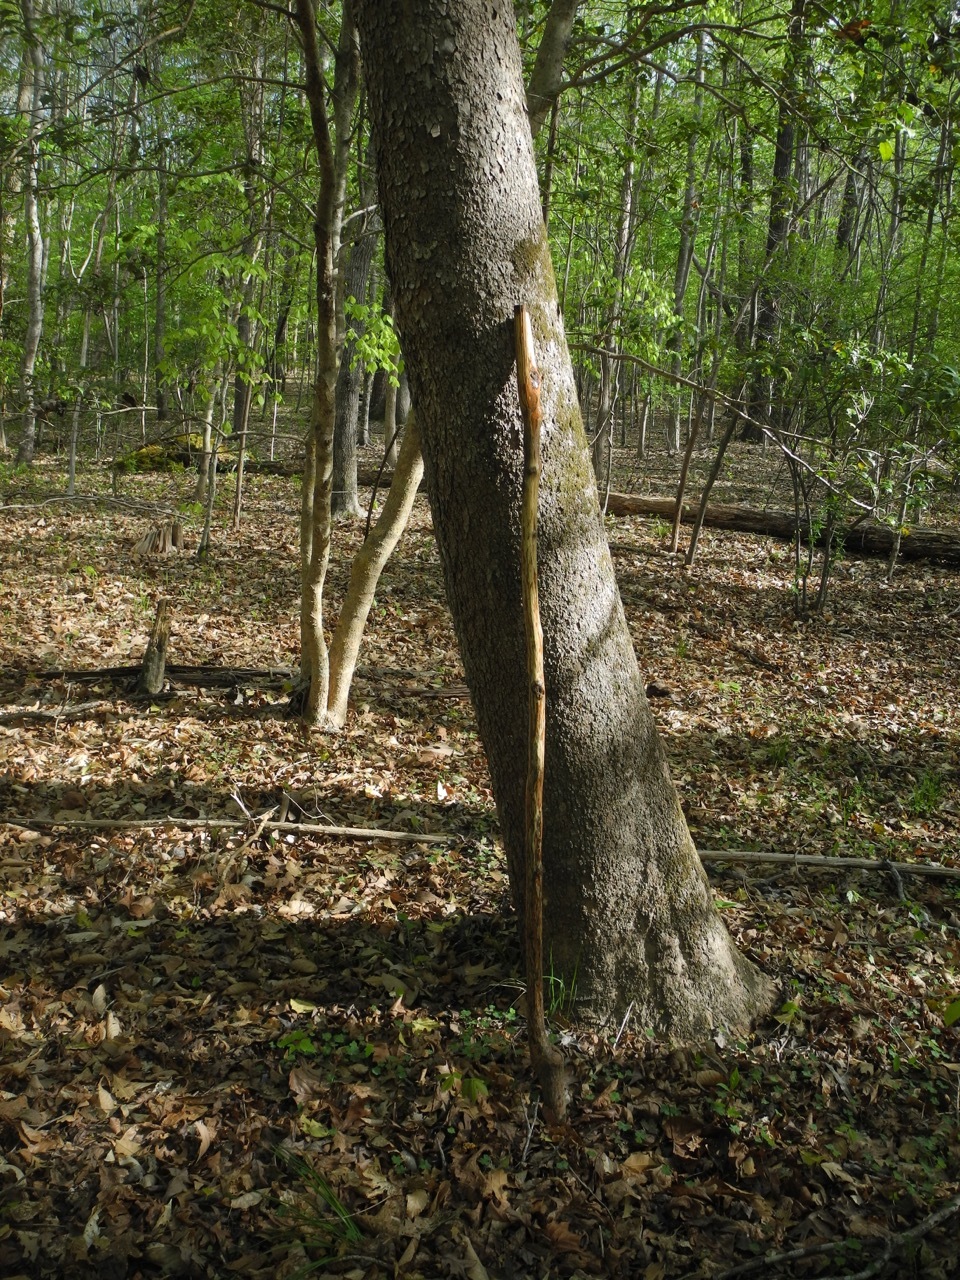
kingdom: Plantae
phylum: Tracheophyta
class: Magnoliopsida
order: Proteales
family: Platanaceae
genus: Platanus
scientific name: Platanus occidentalis
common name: American sycamore
